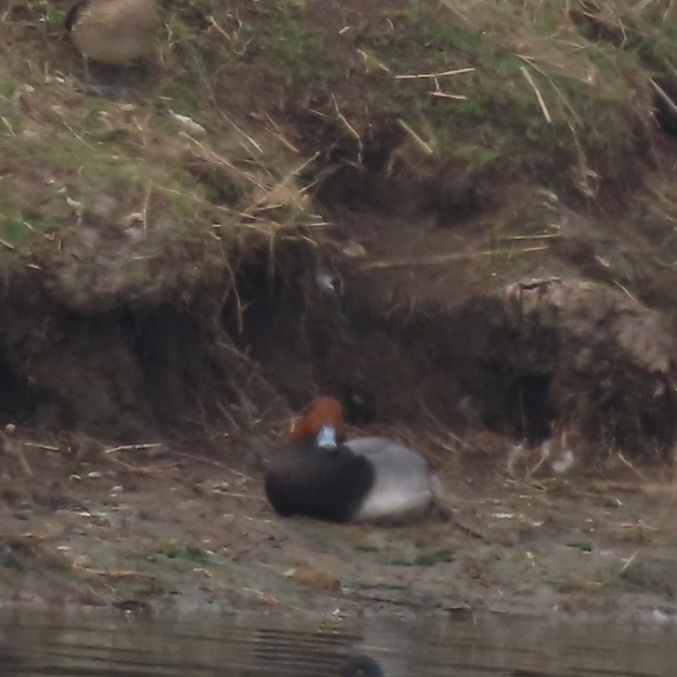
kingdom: Animalia
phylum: Chordata
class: Aves
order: Anseriformes
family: Anatidae
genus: Aythya
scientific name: Aythya americana
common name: Redhead
